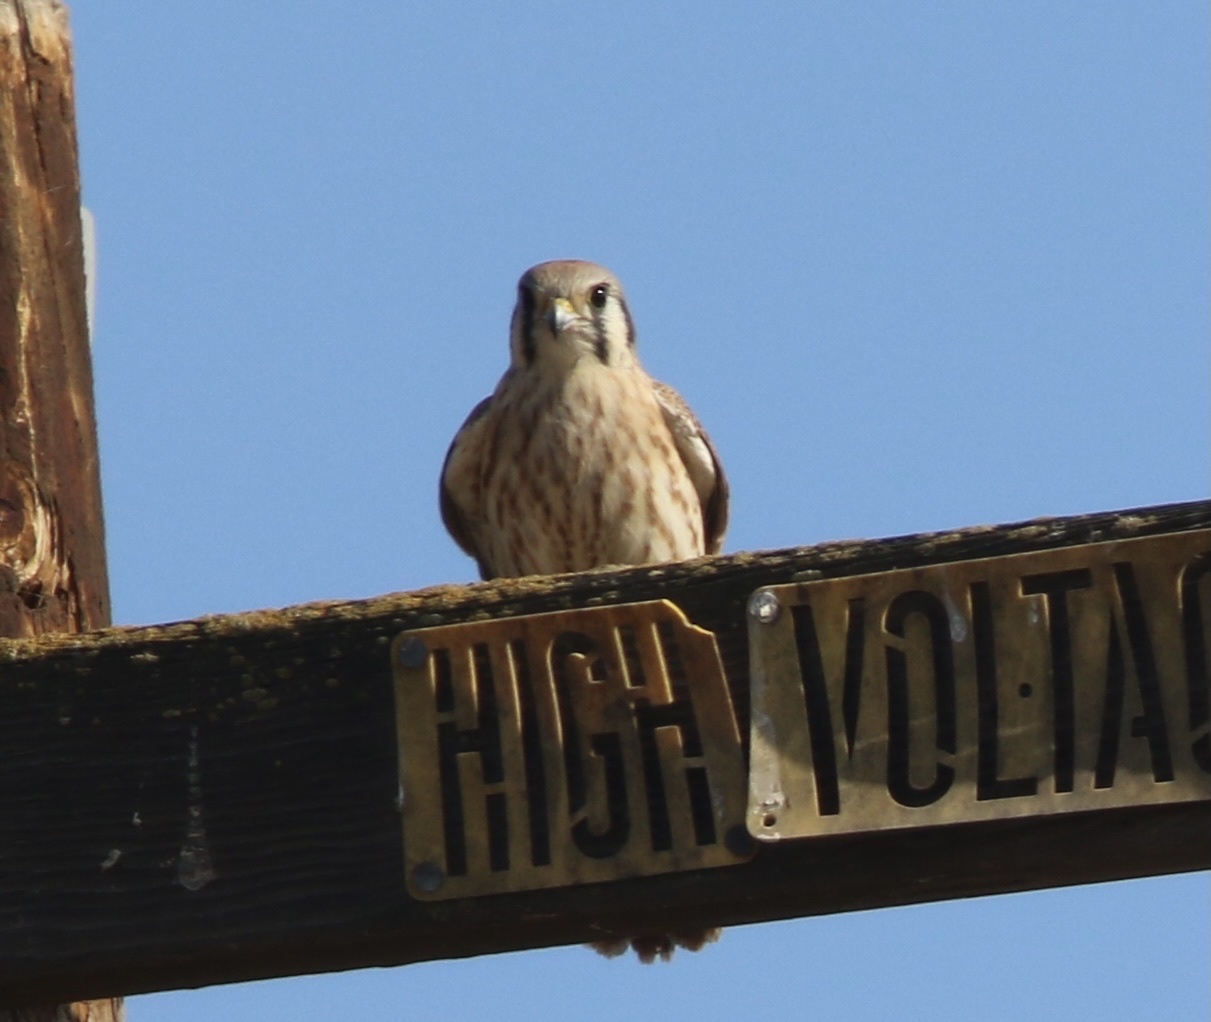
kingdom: Animalia
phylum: Chordata
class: Aves
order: Falconiformes
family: Falconidae
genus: Falco
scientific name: Falco sparverius
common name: American kestrel
